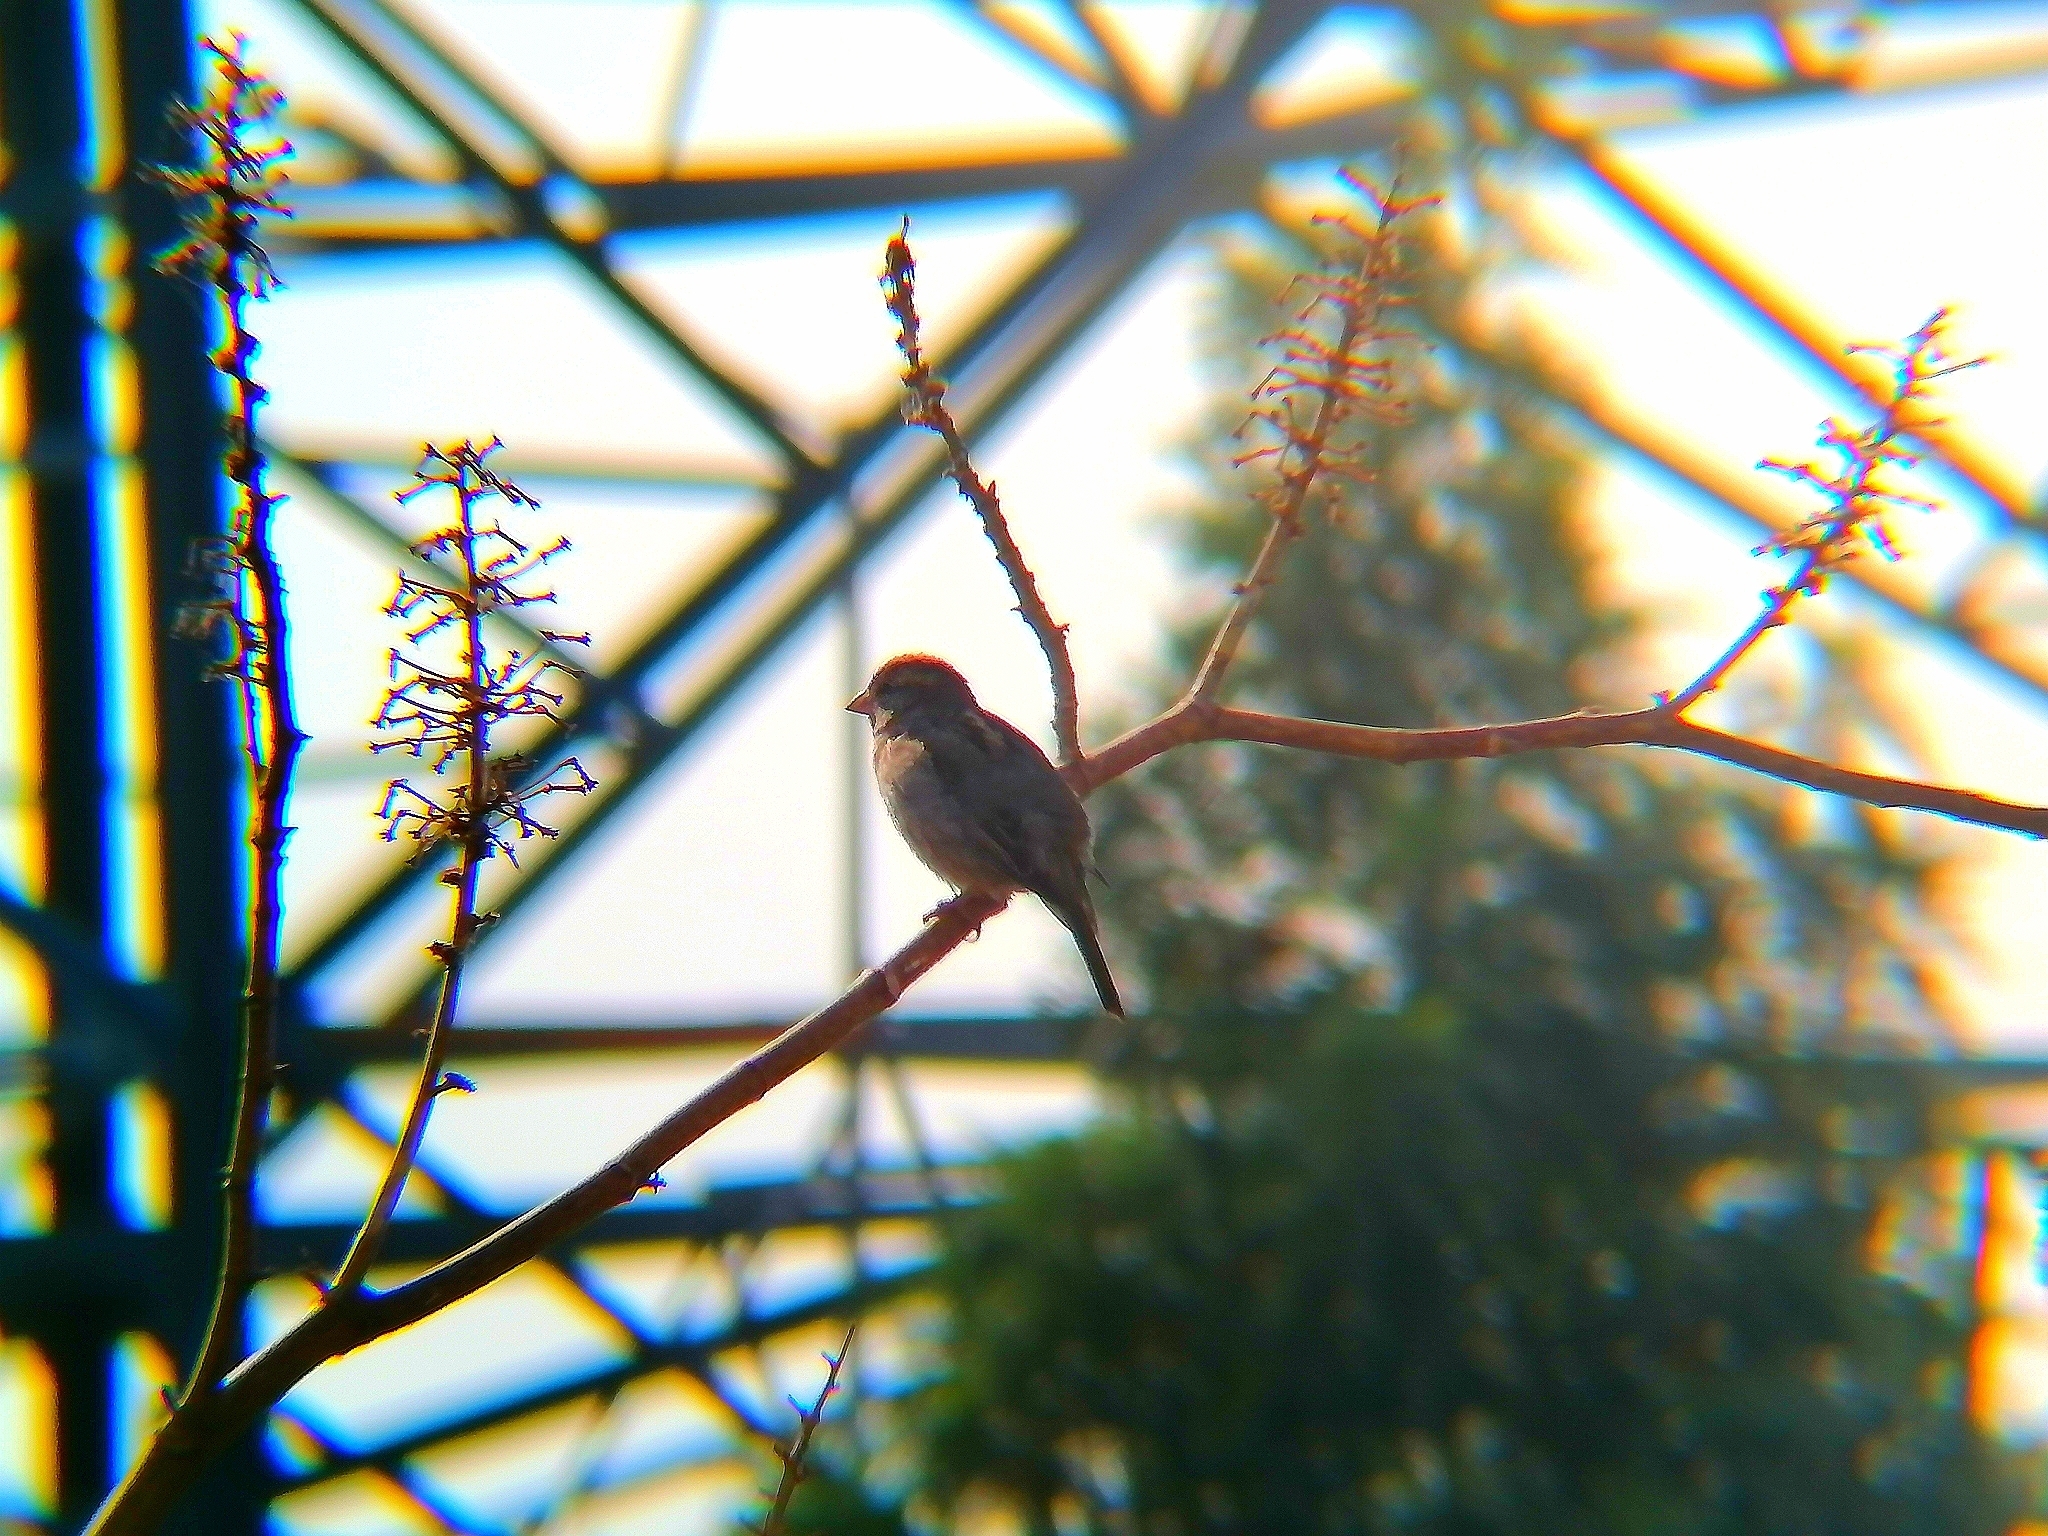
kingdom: Animalia
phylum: Chordata
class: Aves
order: Passeriformes
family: Passeridae
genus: Passer
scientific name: Passer domesticus
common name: House sparrow
